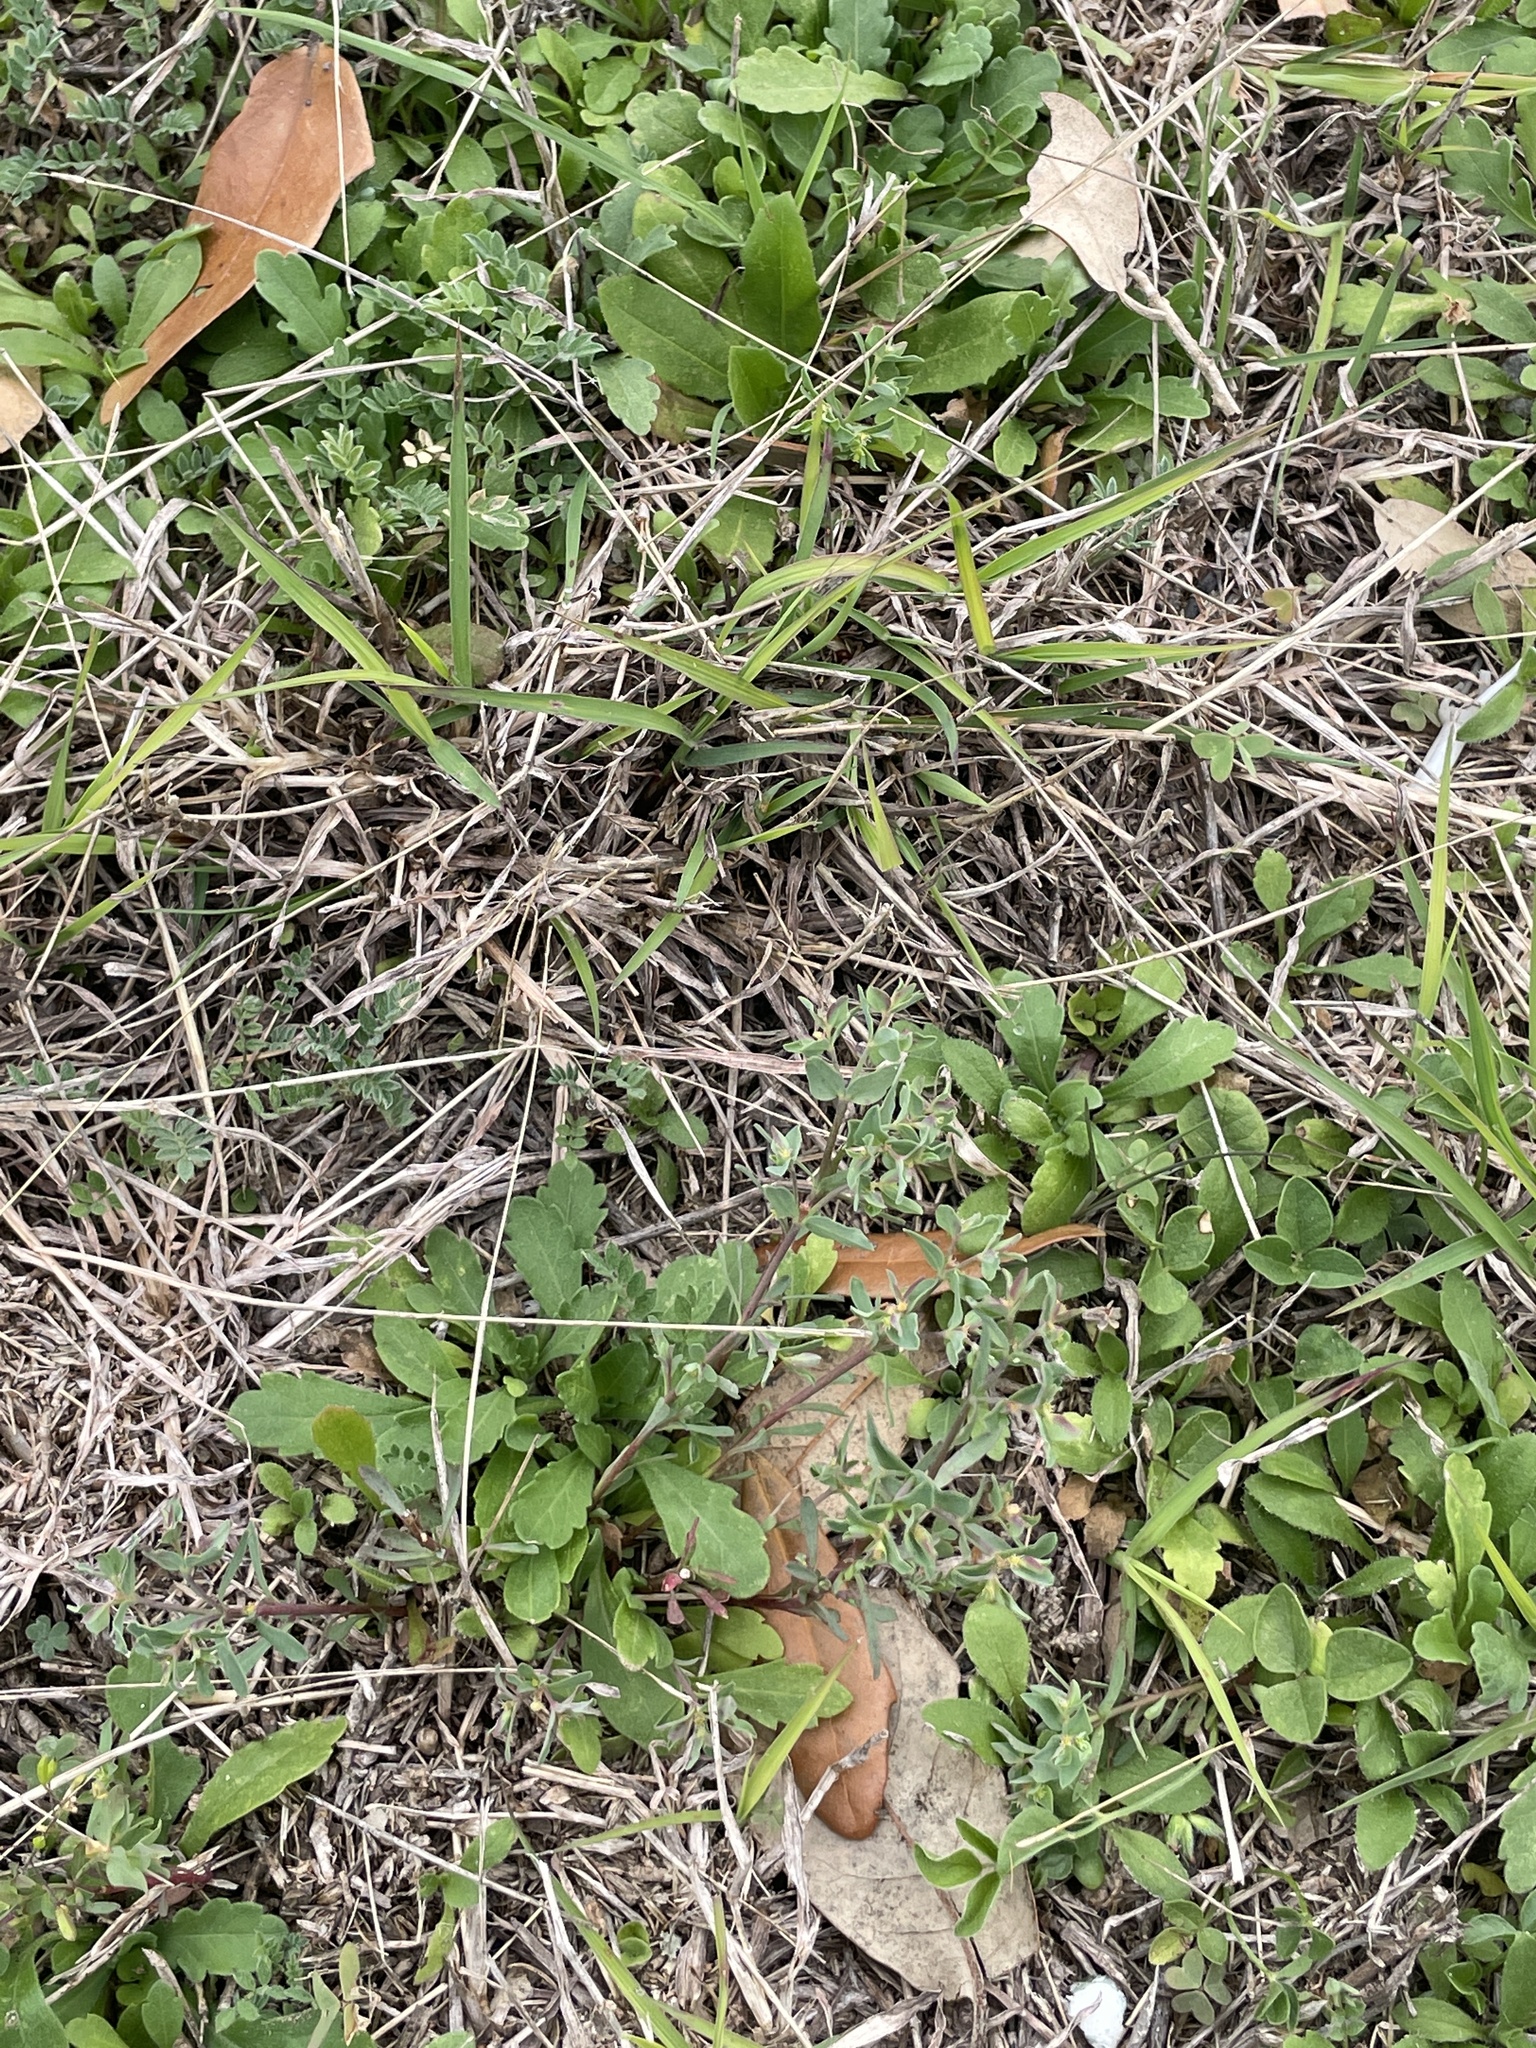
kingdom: Plantae
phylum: Tracheophyta
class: Magnoliopsida
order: Malpighiales
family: Euphorbiaceae
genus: Euphorbia
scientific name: Euphorbia peplidion
